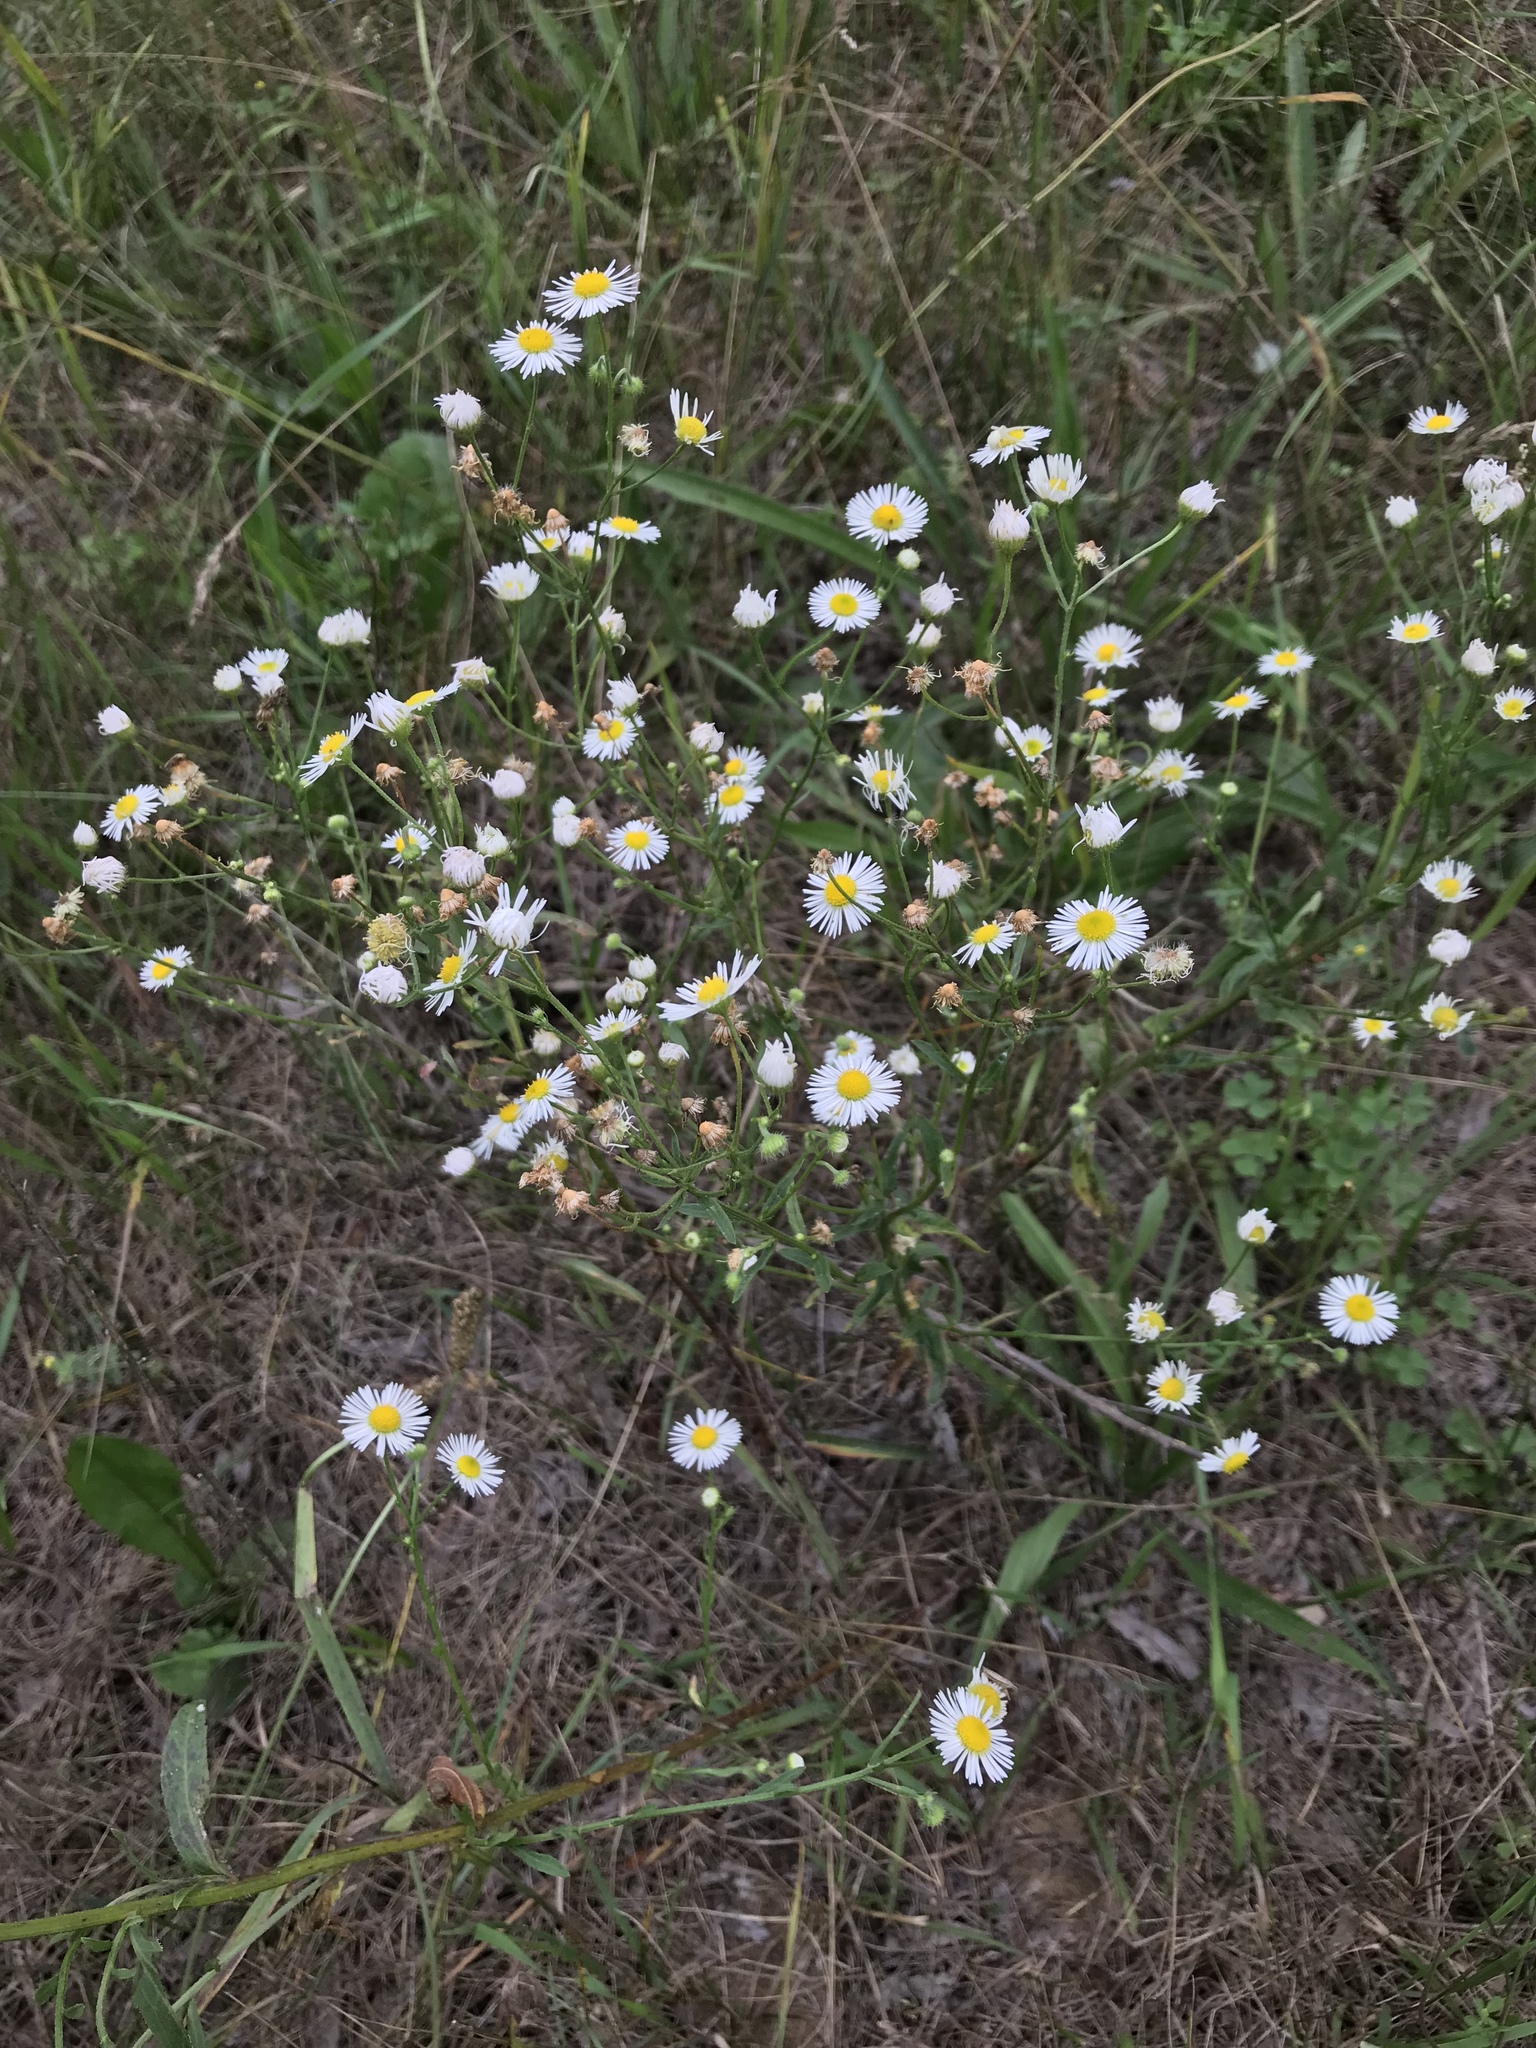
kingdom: Plantae
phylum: Tracheophyta
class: Magnoliopsida
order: Asterales
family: Asteraceae
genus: Erigeron
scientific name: Erigeron strigosus
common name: Common eastern fleabane
